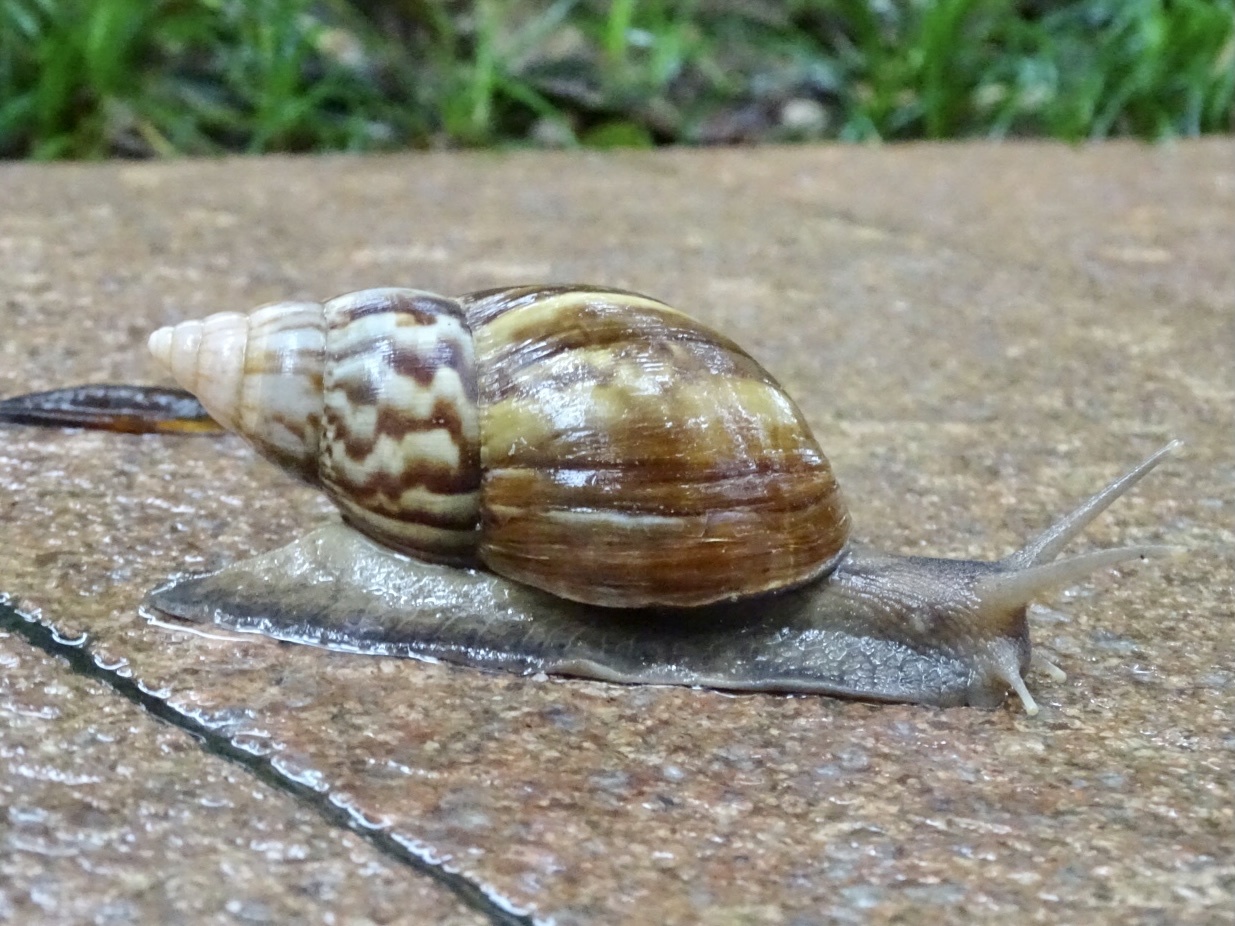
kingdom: Animalia
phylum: Mollusca
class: Gastropoda
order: Stylommatophora
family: Achatinidae
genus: Lissachatina
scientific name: Lissachatina fulica
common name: Giant african snail
